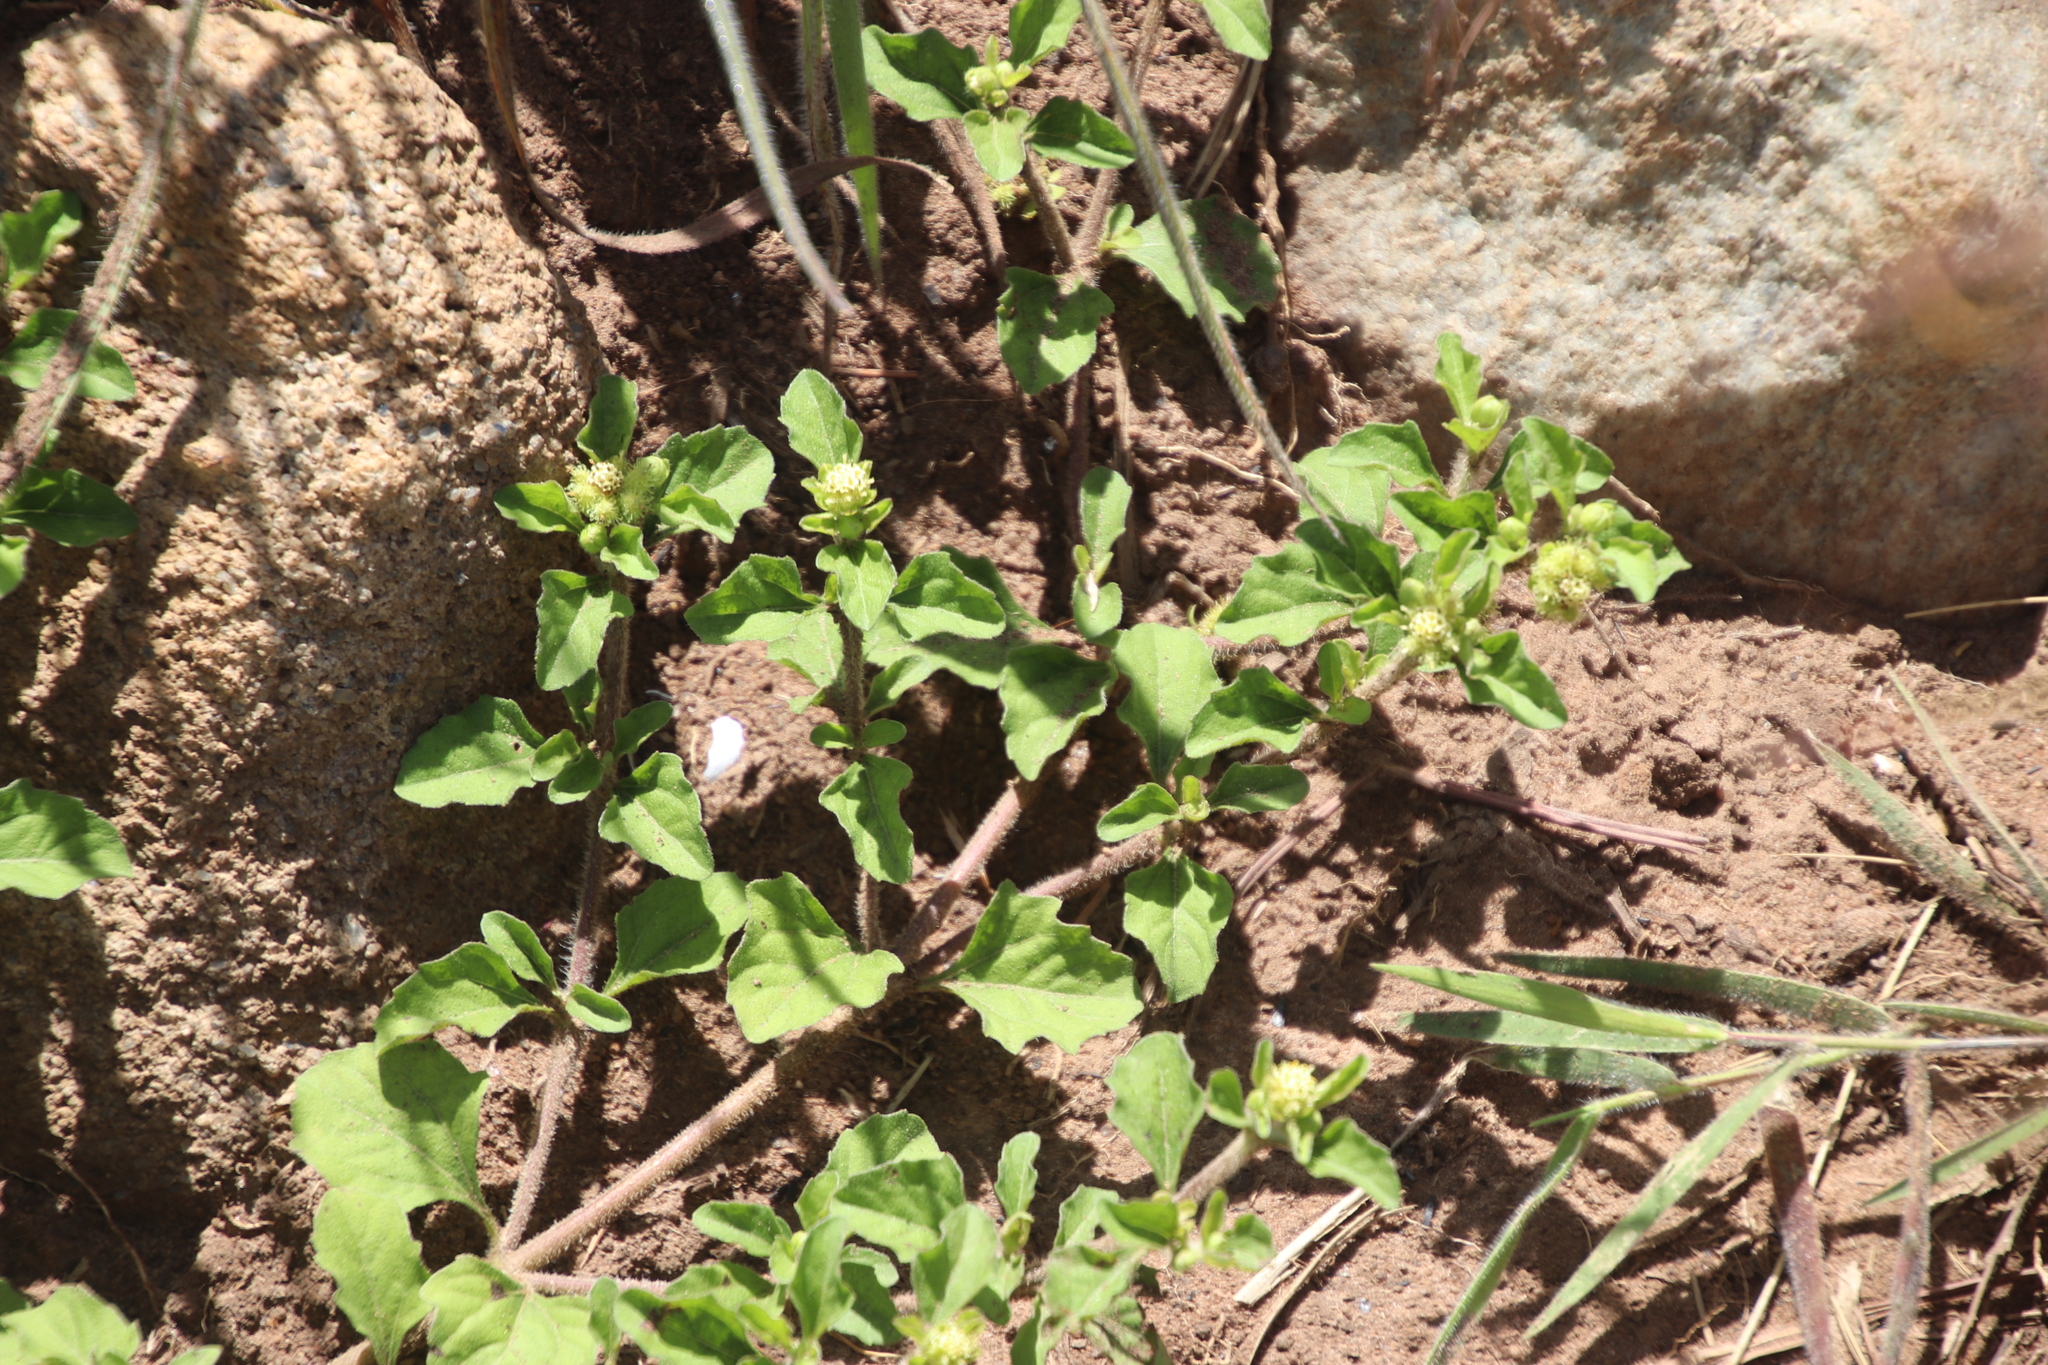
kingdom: Plantae
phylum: Tracheophyta
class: Magnoliopsida
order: Asterales
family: Asteraceae
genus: Acanthospermum
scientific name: Acanthospermum australe
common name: Paraguayan starbur
